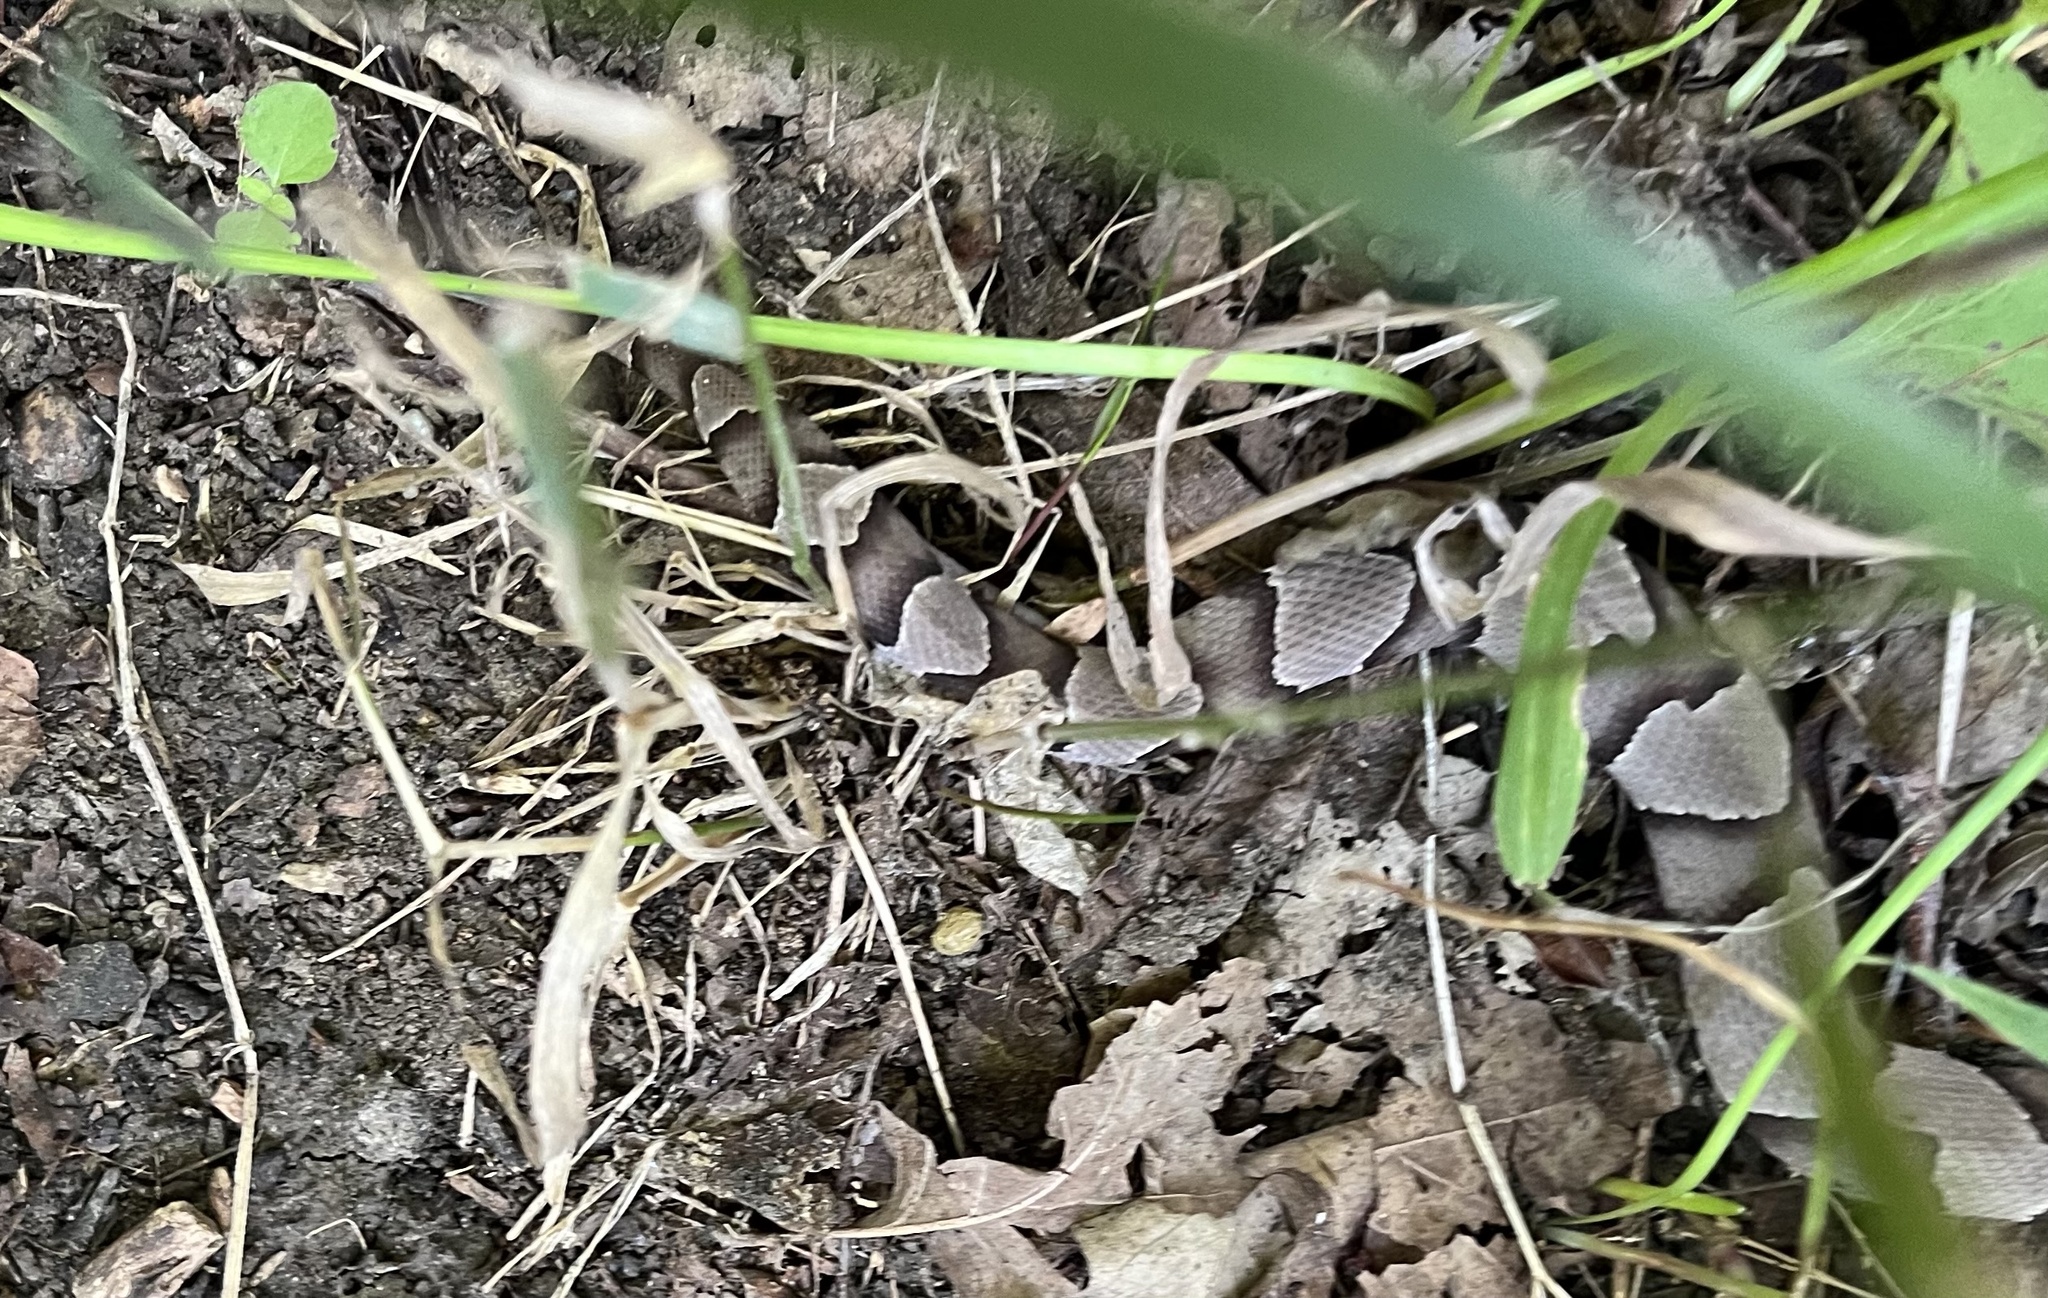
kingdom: Animalia
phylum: Chordata
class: Squamata
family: Viperidae
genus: Agkistrodon
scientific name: Agkistrodon laticinctus
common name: Broad-banded copperhead
